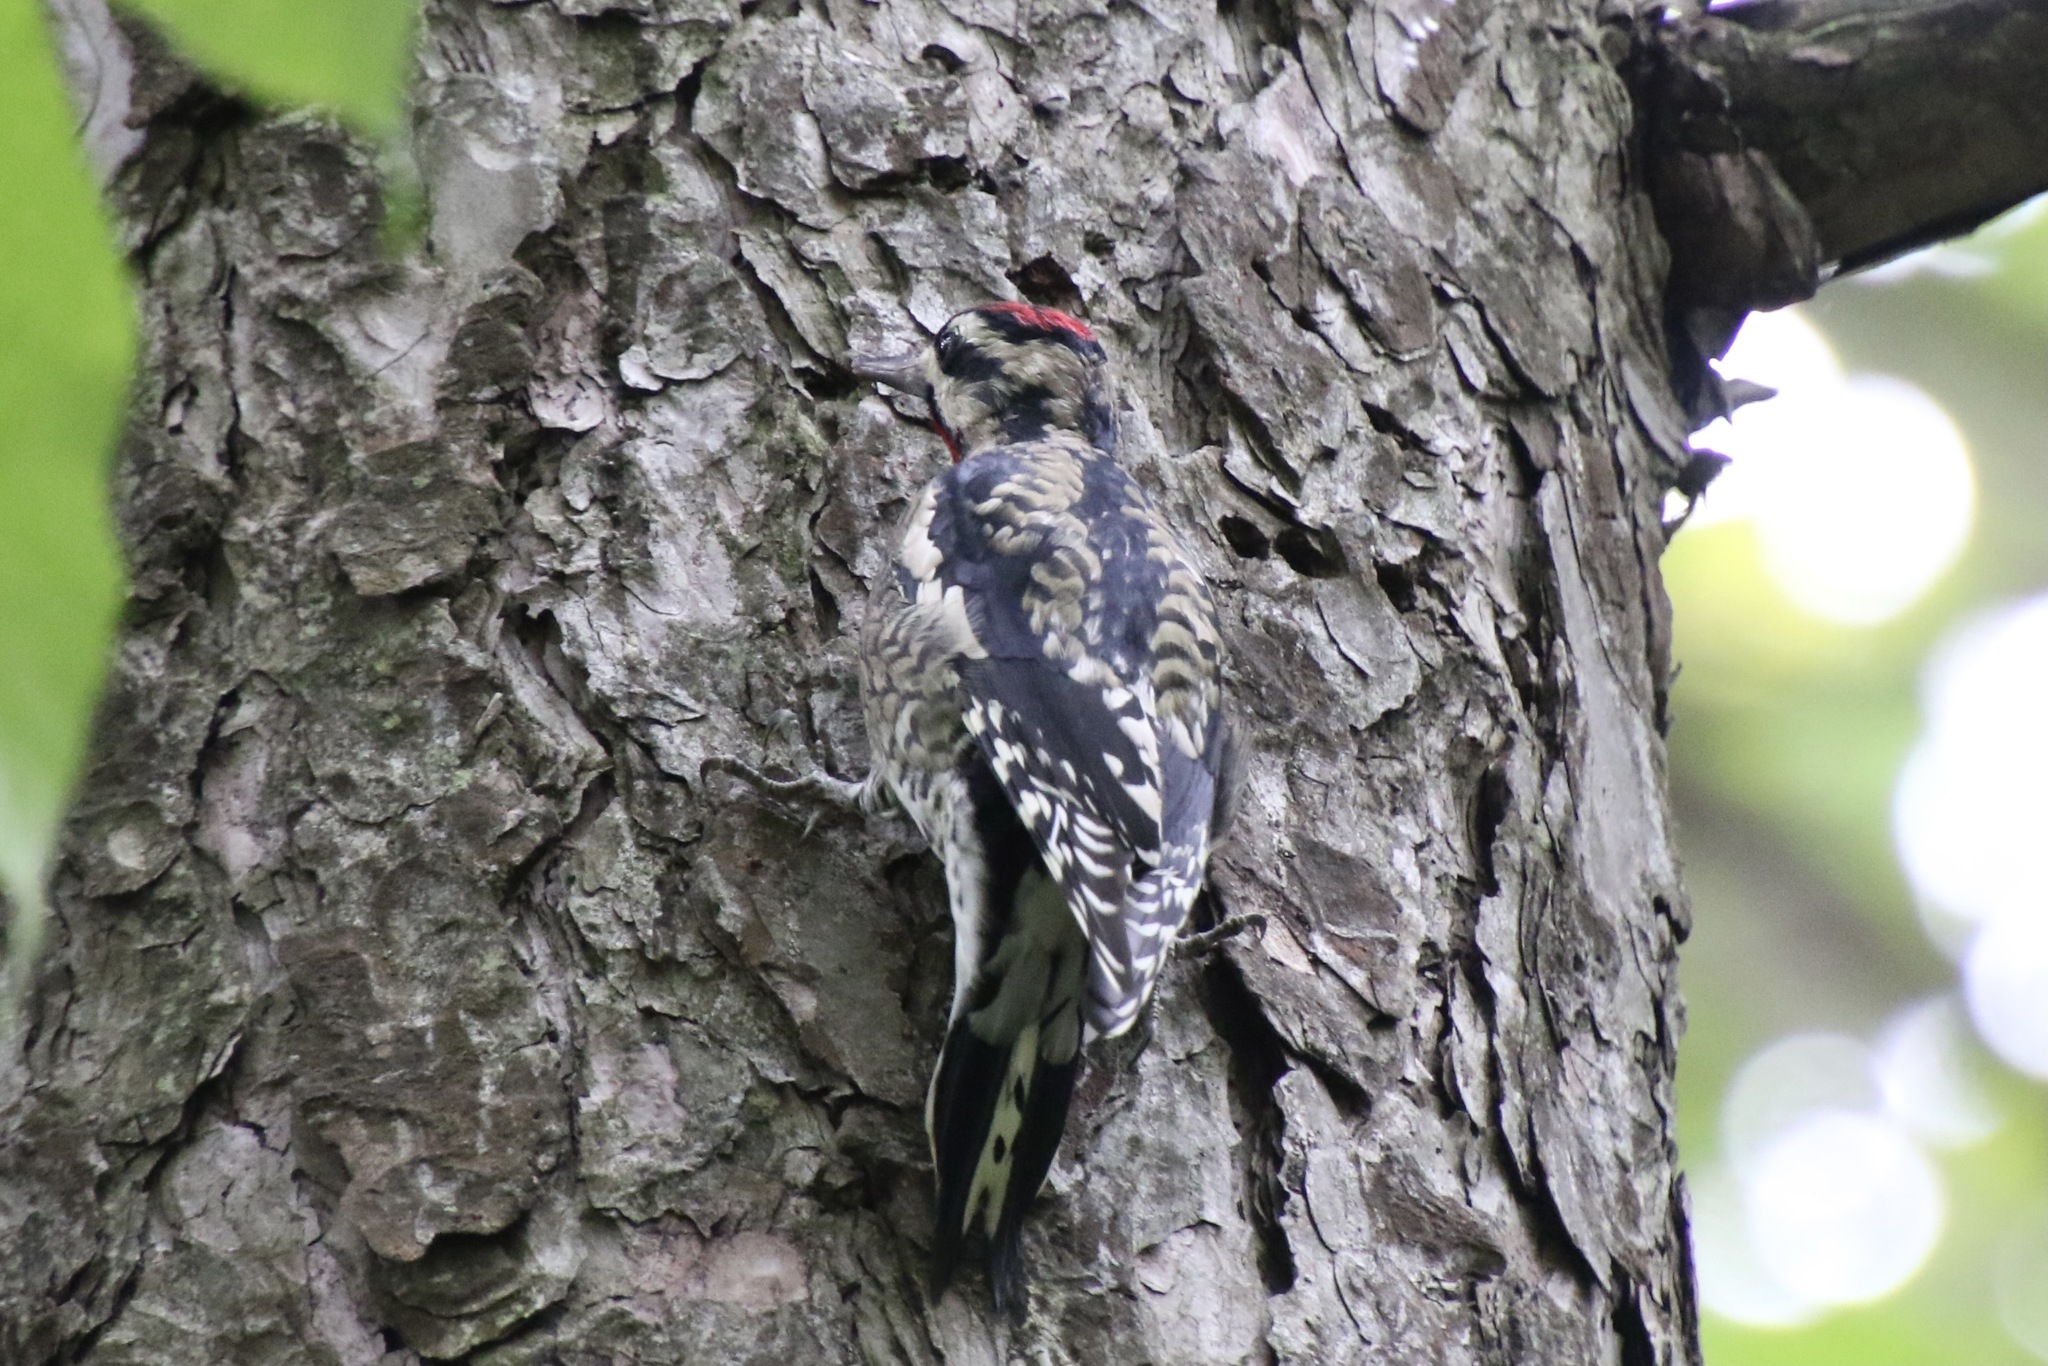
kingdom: Animalia
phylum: Chordata
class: Aves
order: Piciformes
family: Picidae
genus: Sphyrapicus
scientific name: Sphyrapicus varius
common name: Yellow-bellied sapsucker
